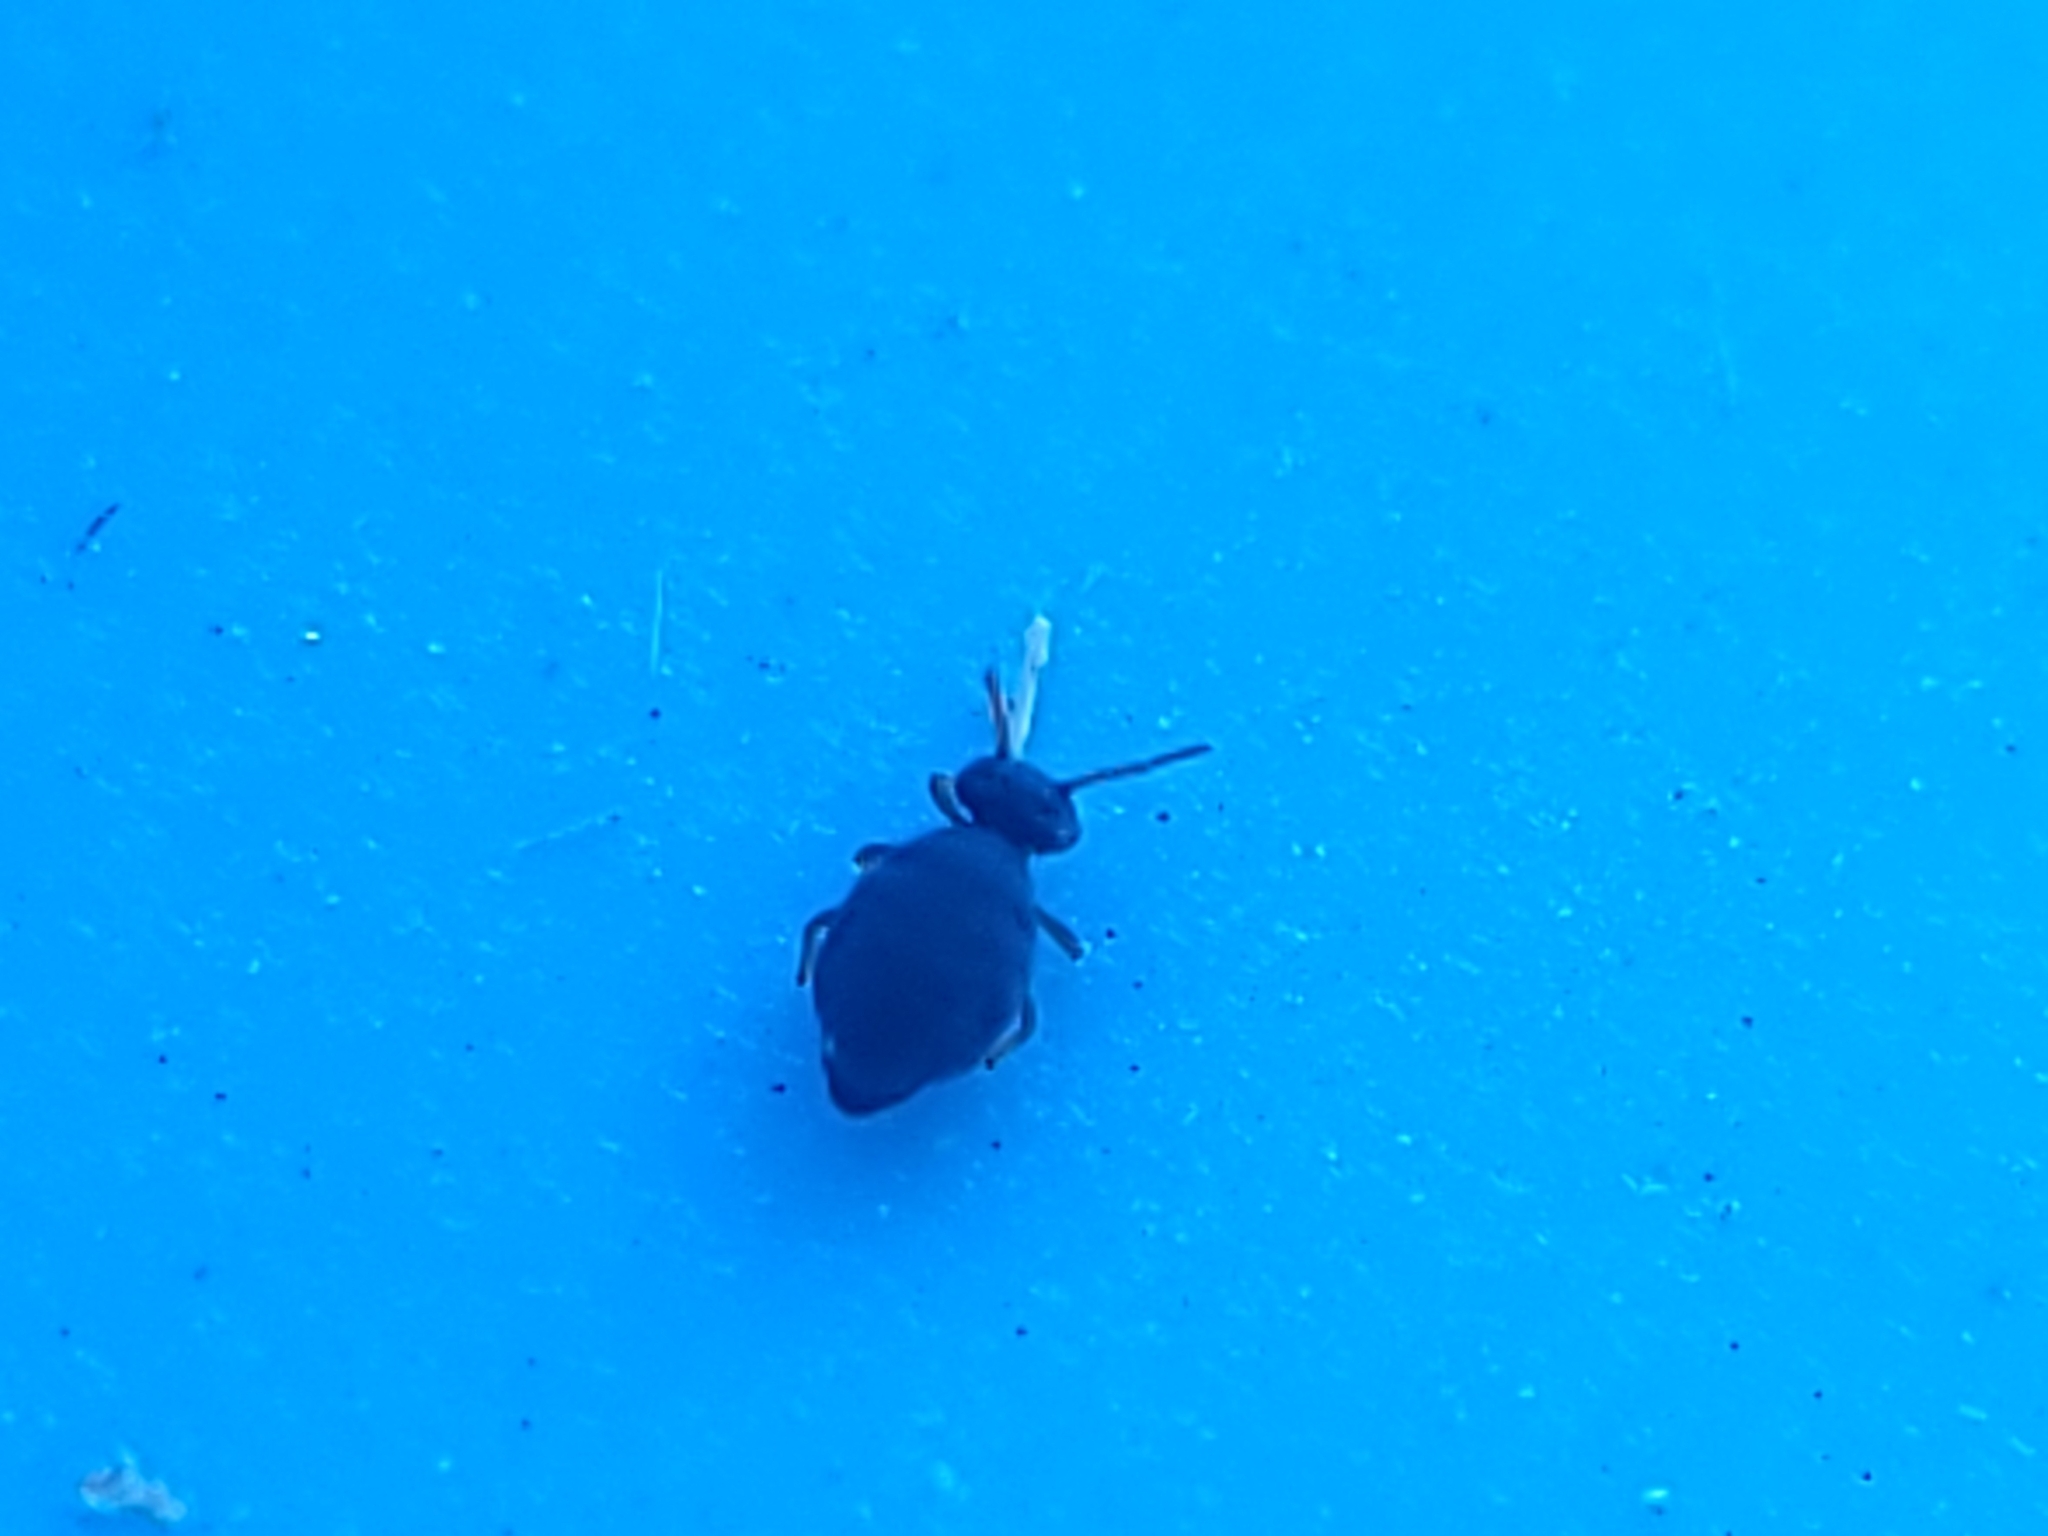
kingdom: Animalia
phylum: Arthropoda
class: Collembola
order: Symphypleona
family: Katiannidae
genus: Sminthurinus
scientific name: Sminthurinus atrapallidus
